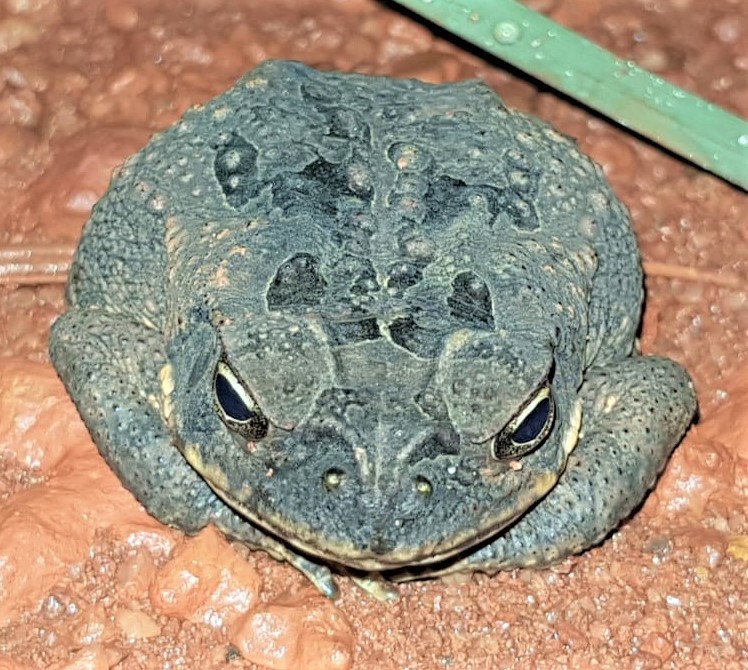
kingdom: Animalia
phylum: Chordata
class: Amphibia
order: Anura
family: Bufonidae
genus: Rhinella
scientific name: Rhinella marina
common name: Cane toad
